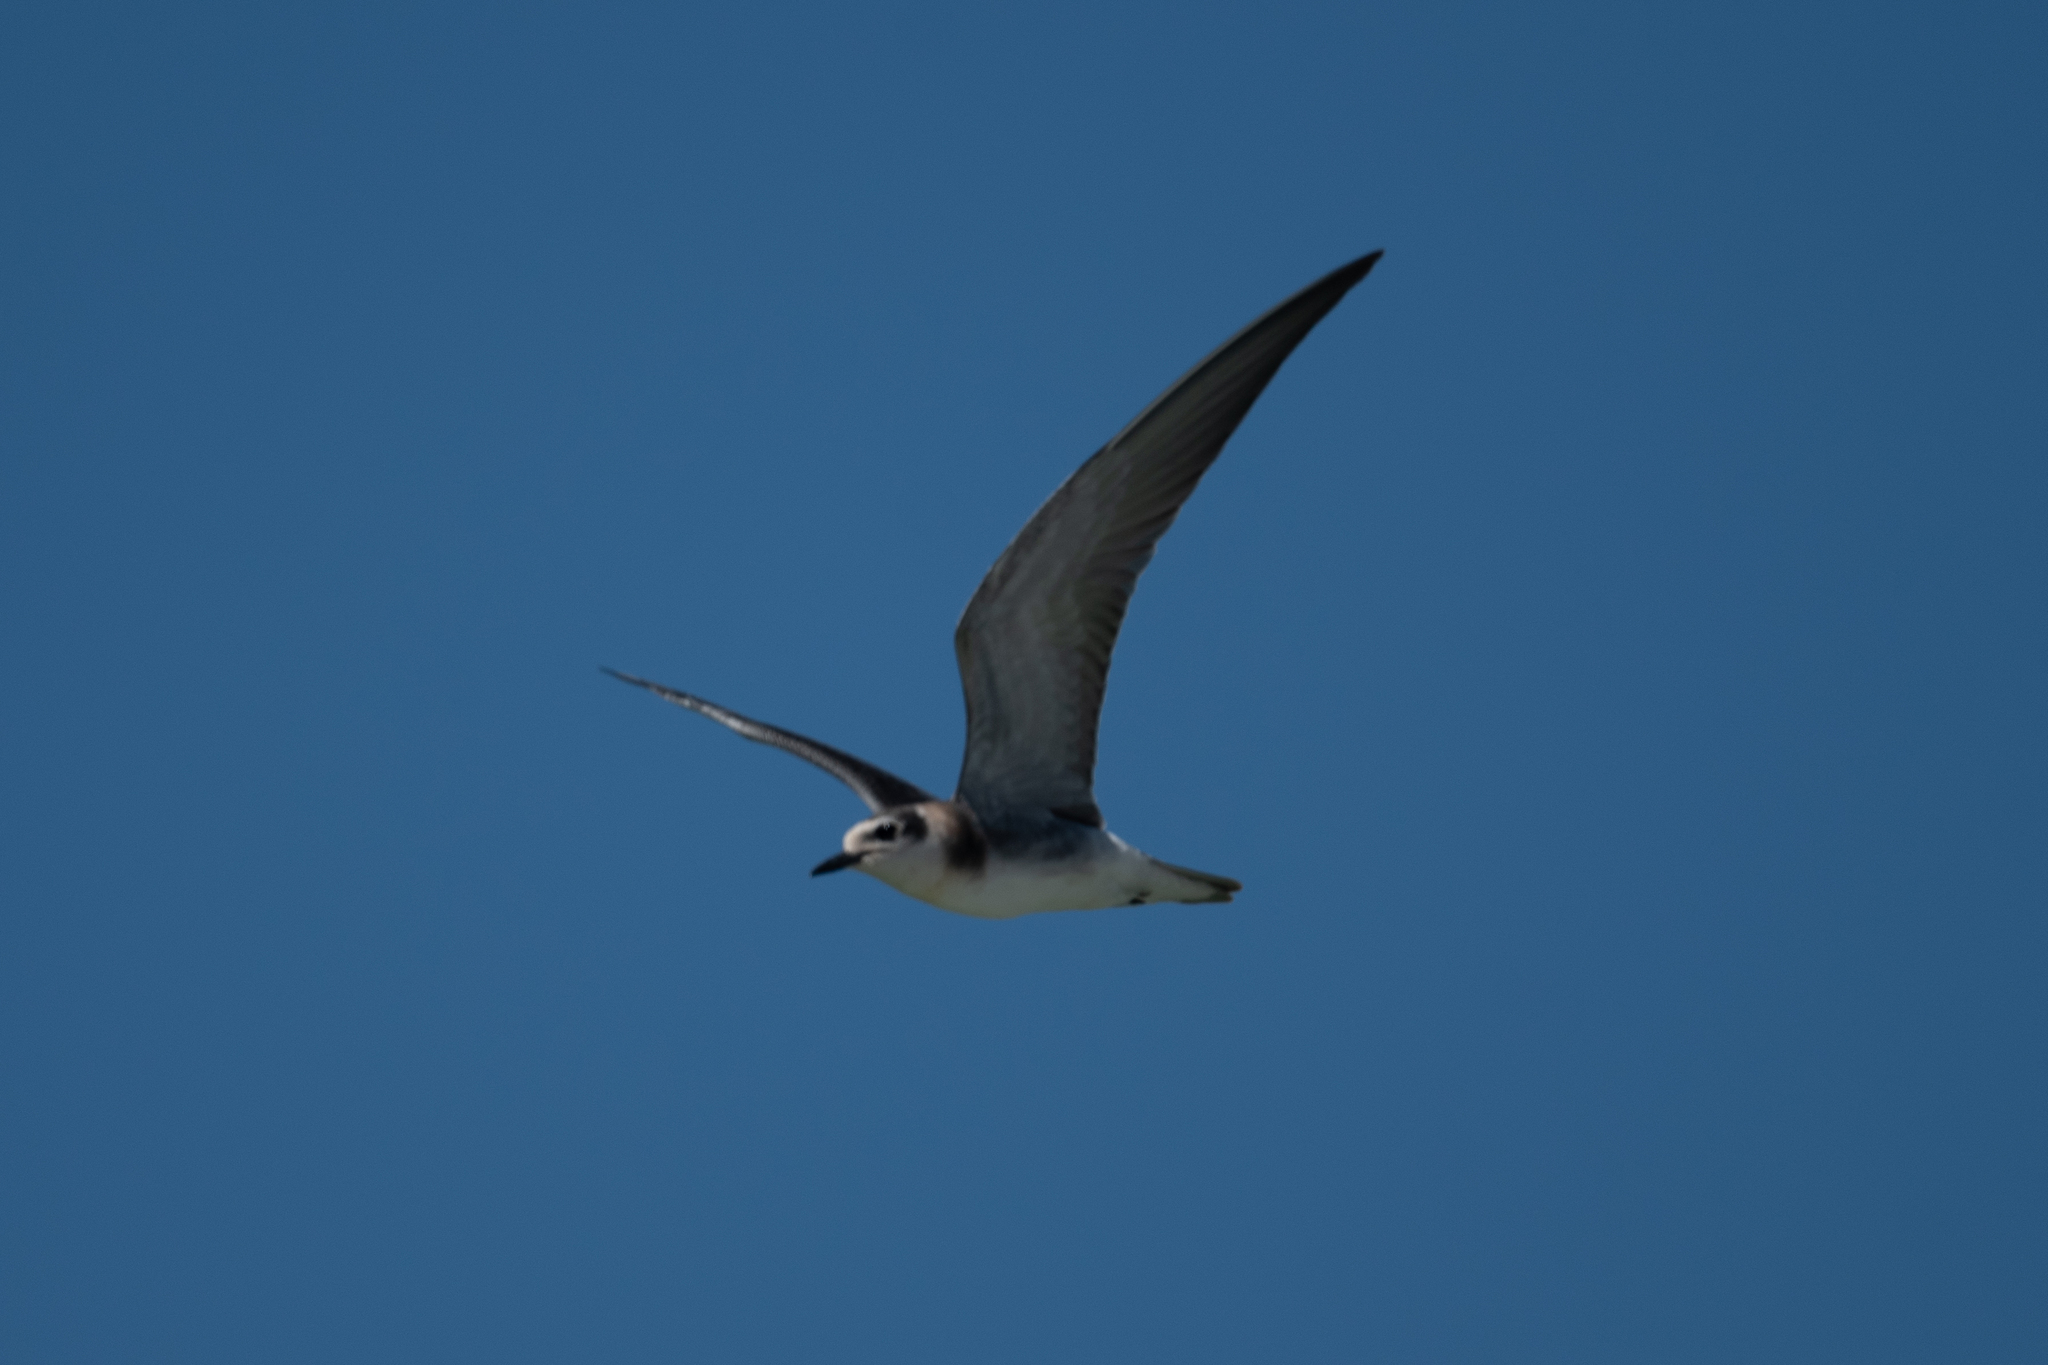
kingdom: Animalia
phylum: Chordata
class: Aves
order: Charadriiformes
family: Laridae
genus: Chlidonias
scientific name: Chlidonias niger
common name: Black tern
